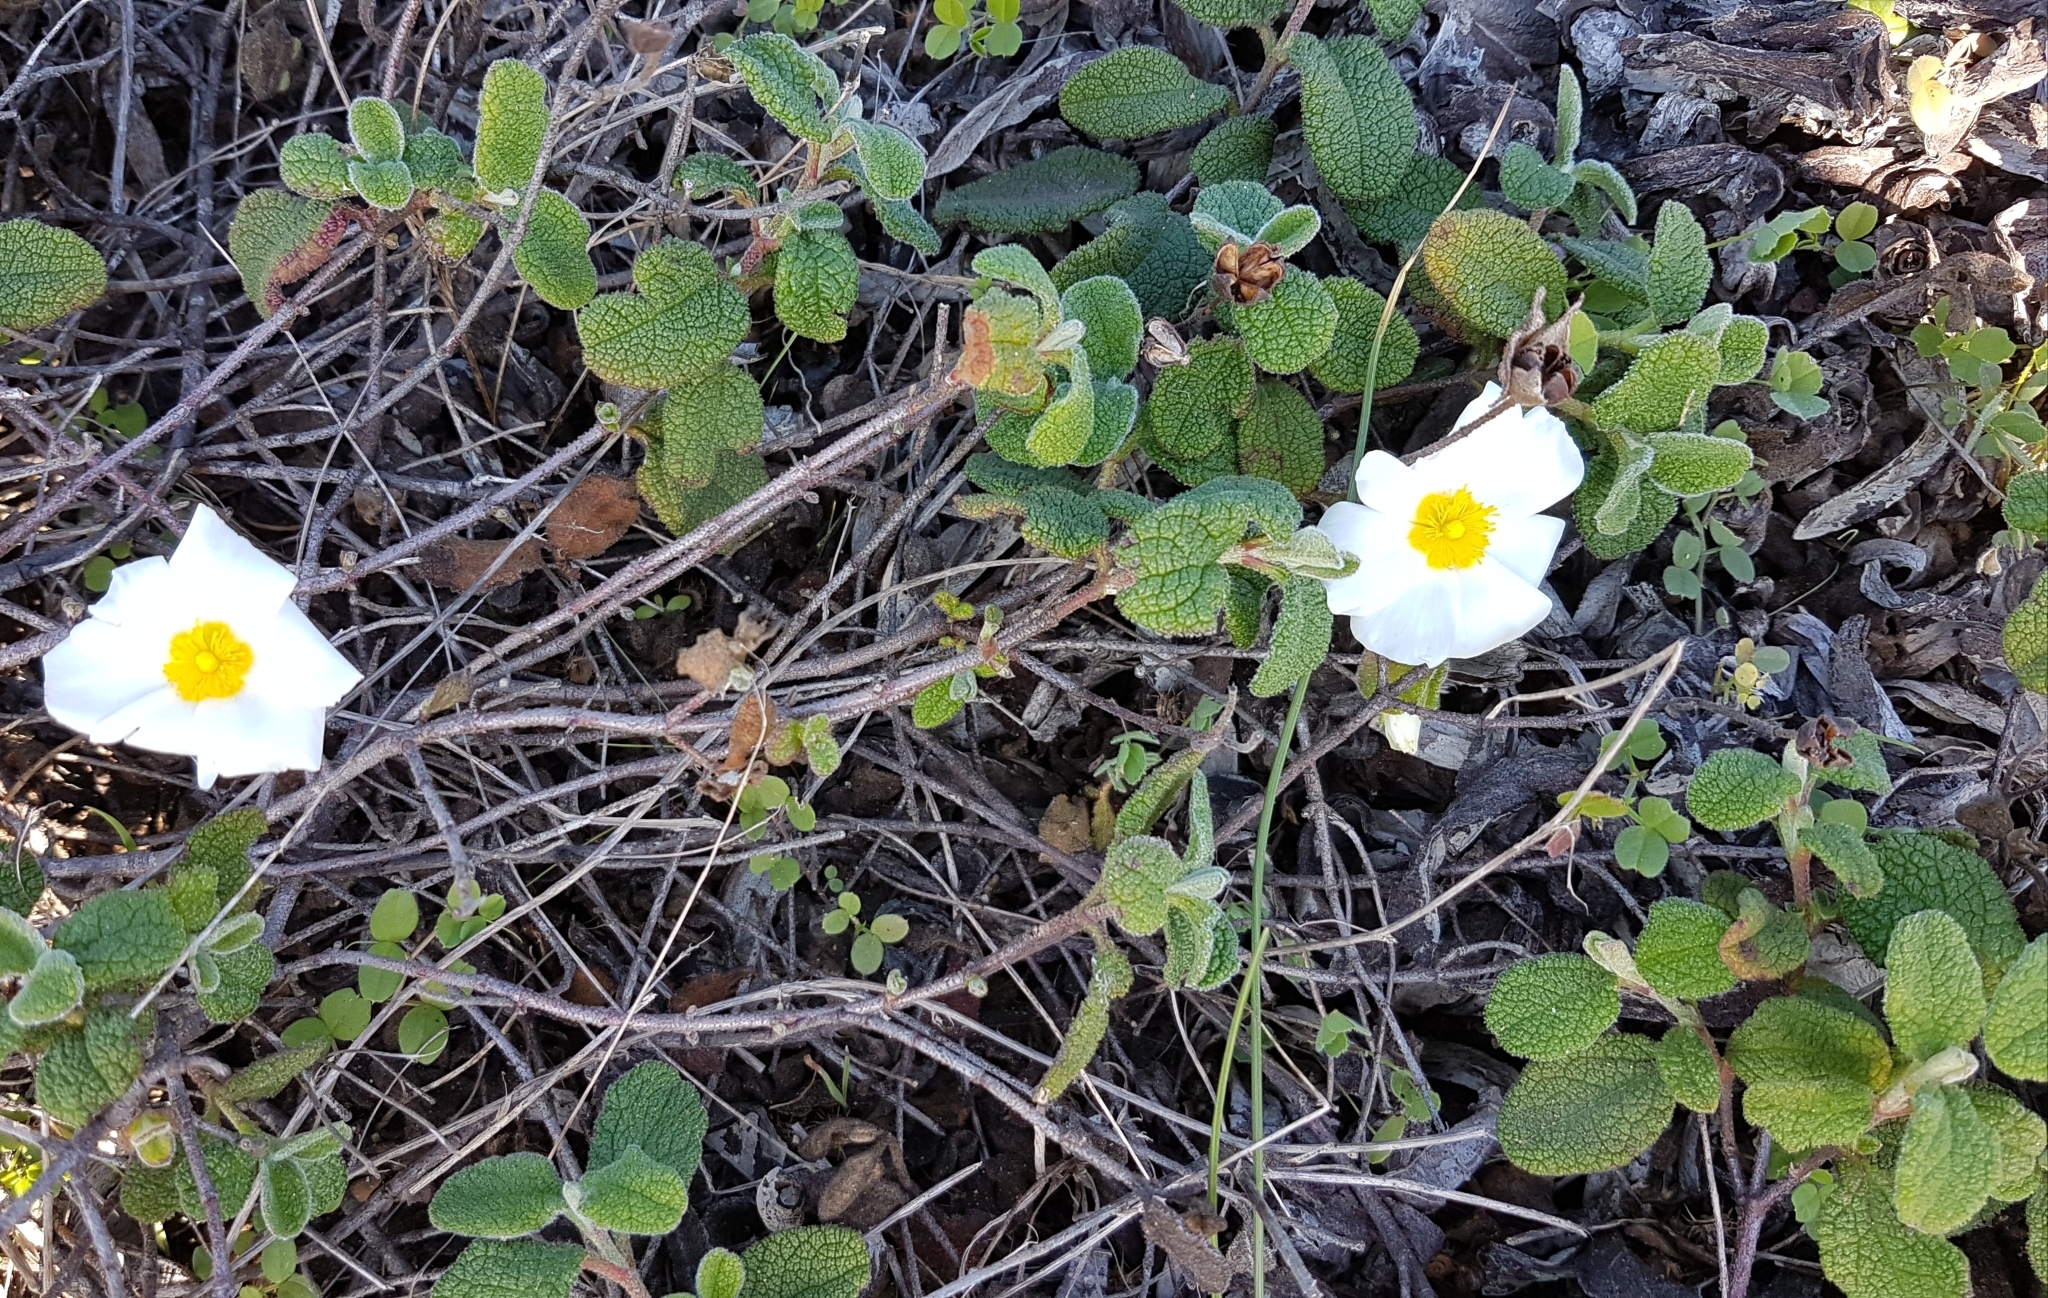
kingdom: Plantae
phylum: Tracheophyta
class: Magnoliopsida
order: Malvales
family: Cistaceae
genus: Cistus
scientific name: Cistus salviifolius
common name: Salvia cistus
